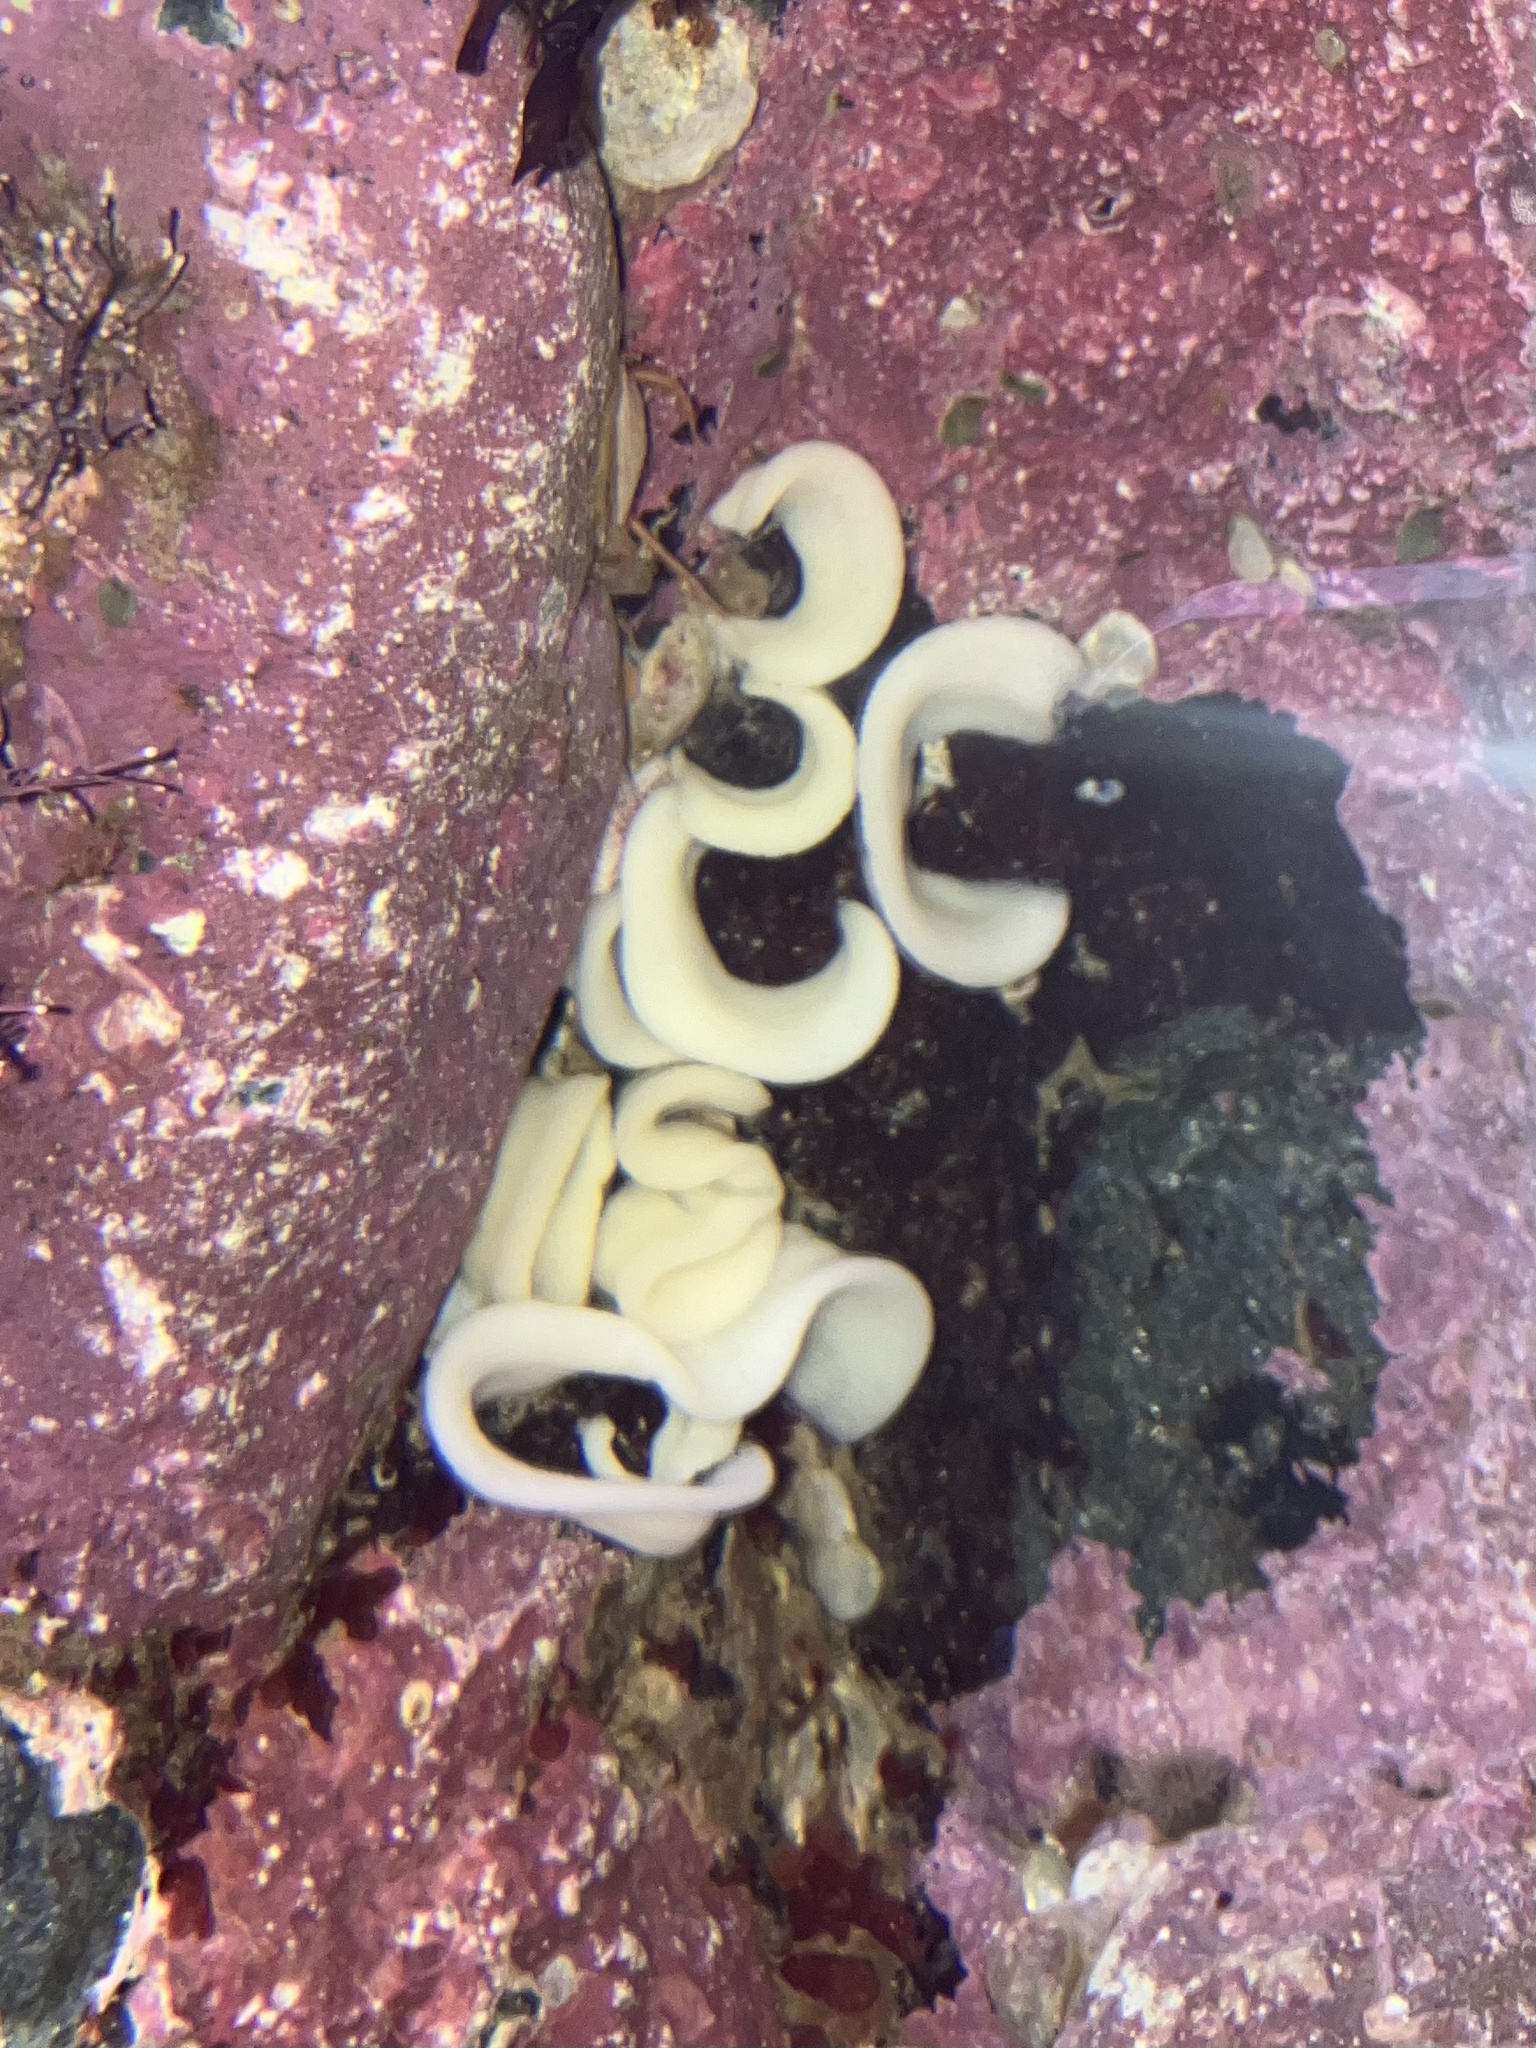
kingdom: Animalia
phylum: Mollusca
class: Gastropoda
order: Nudibranchia
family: Onchidorididae
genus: Onchidoris
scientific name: Onchidoris bilamellata
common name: Barnacle-eating onchidoris
